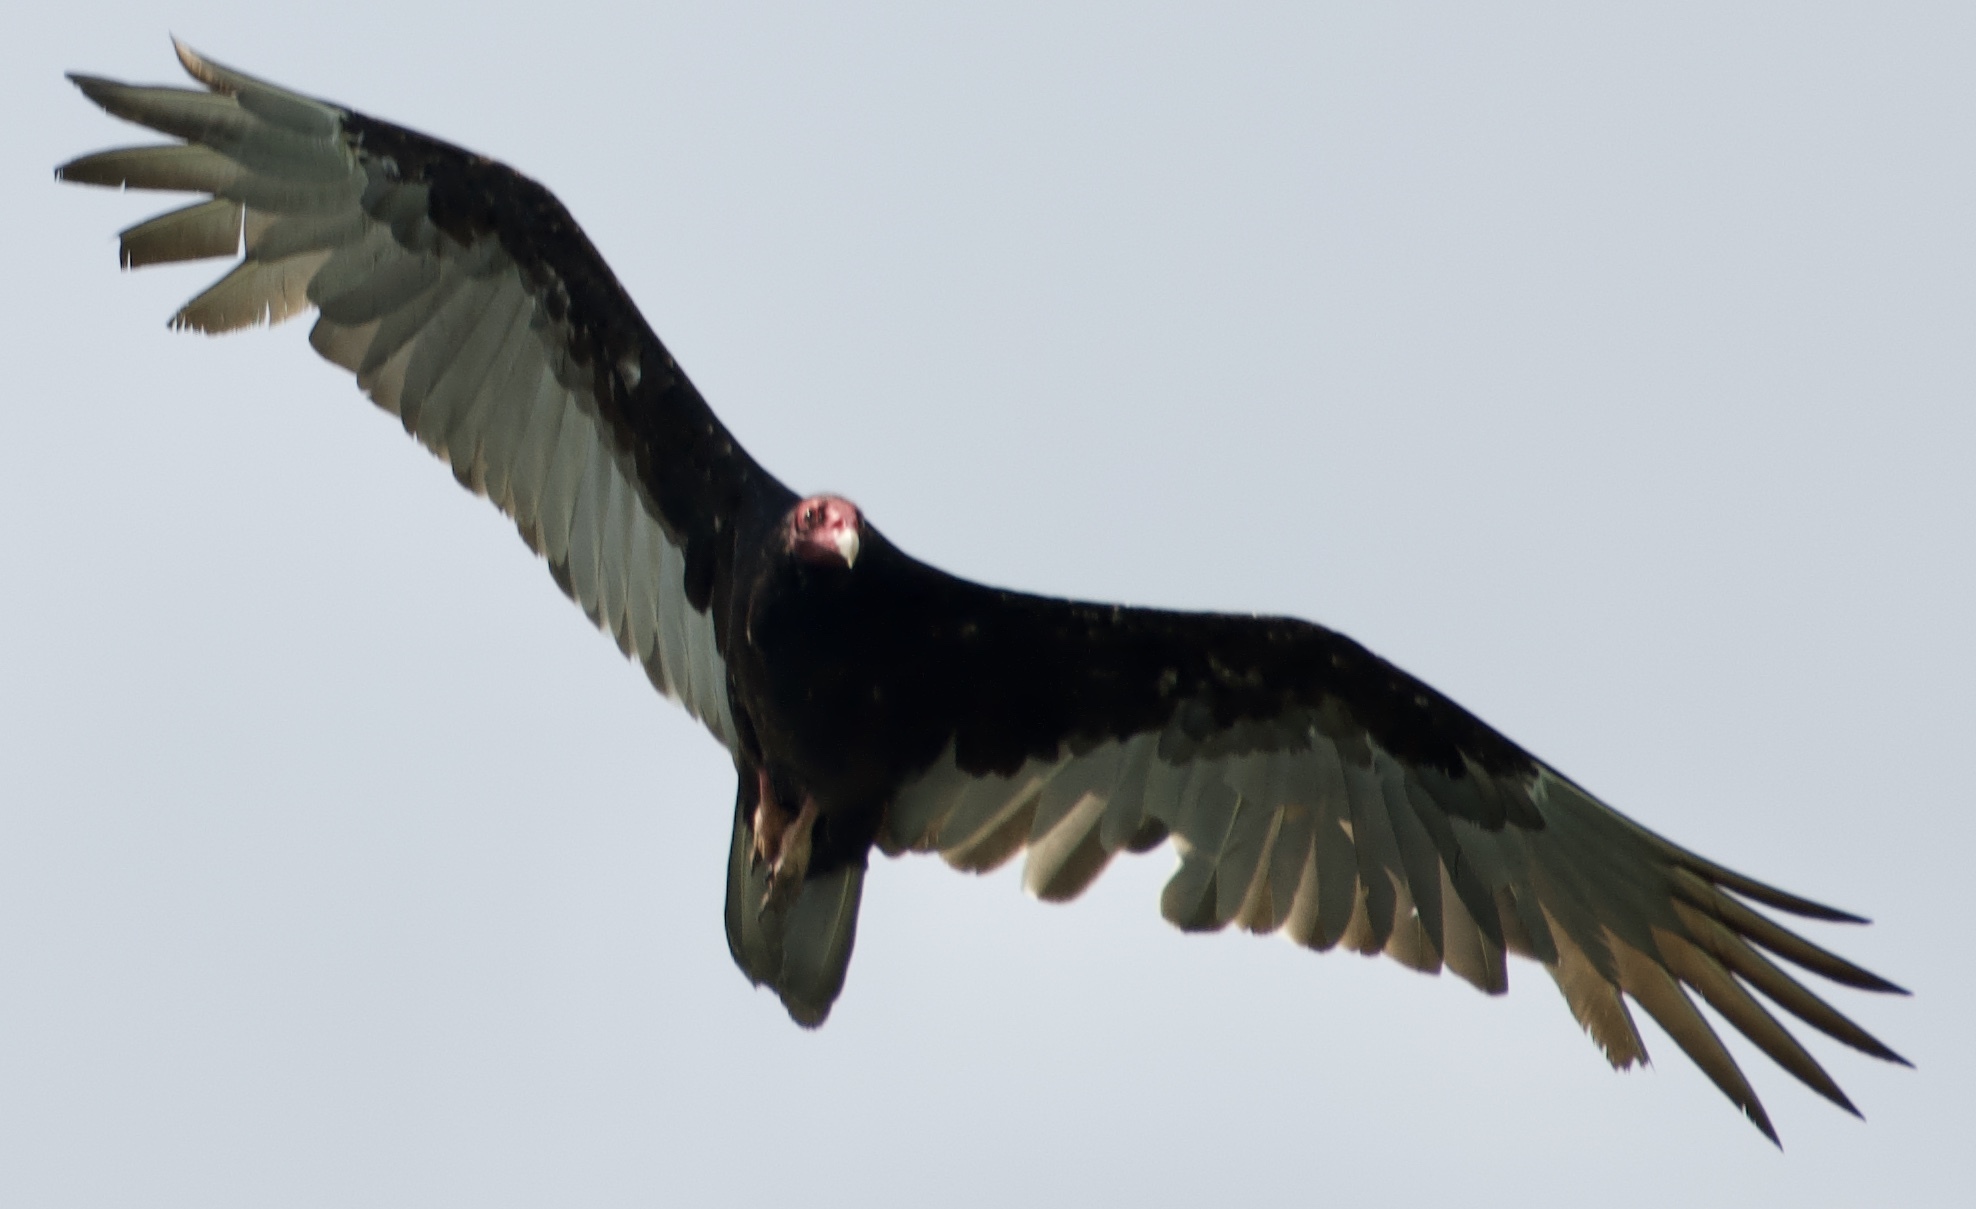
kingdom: Animalia
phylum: Chordata
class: Aves
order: Accipitriformes
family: Cathartidae
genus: Cathartes
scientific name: Cathartes aura
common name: Turkey vulture
